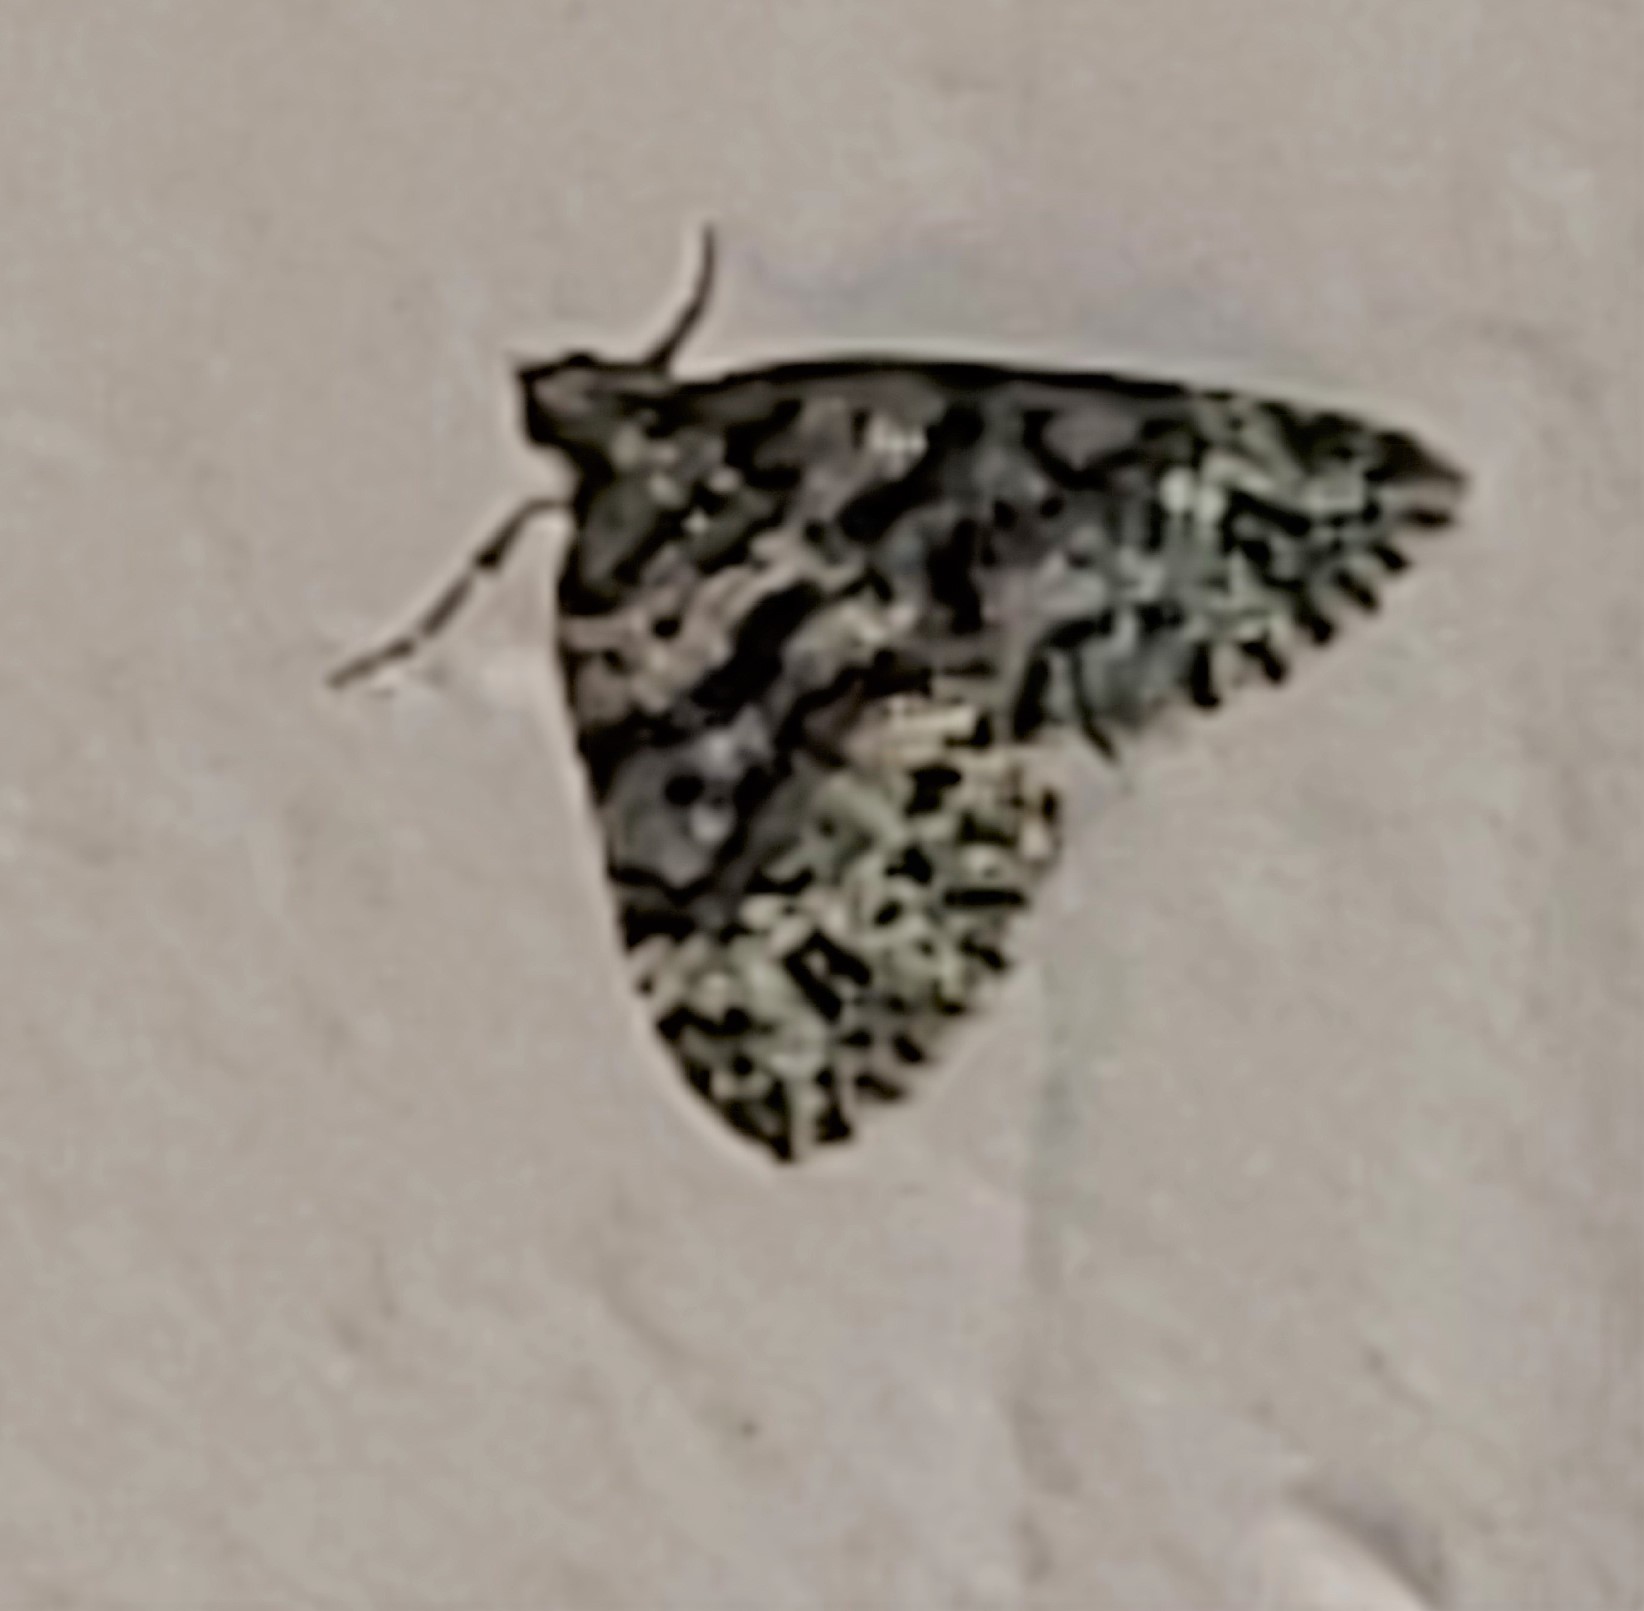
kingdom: Animalia
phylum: Arthropoda
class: Insecta
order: Lepidoptera
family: Geometridae
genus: Hammaptera
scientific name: Hammaptera parinotata
